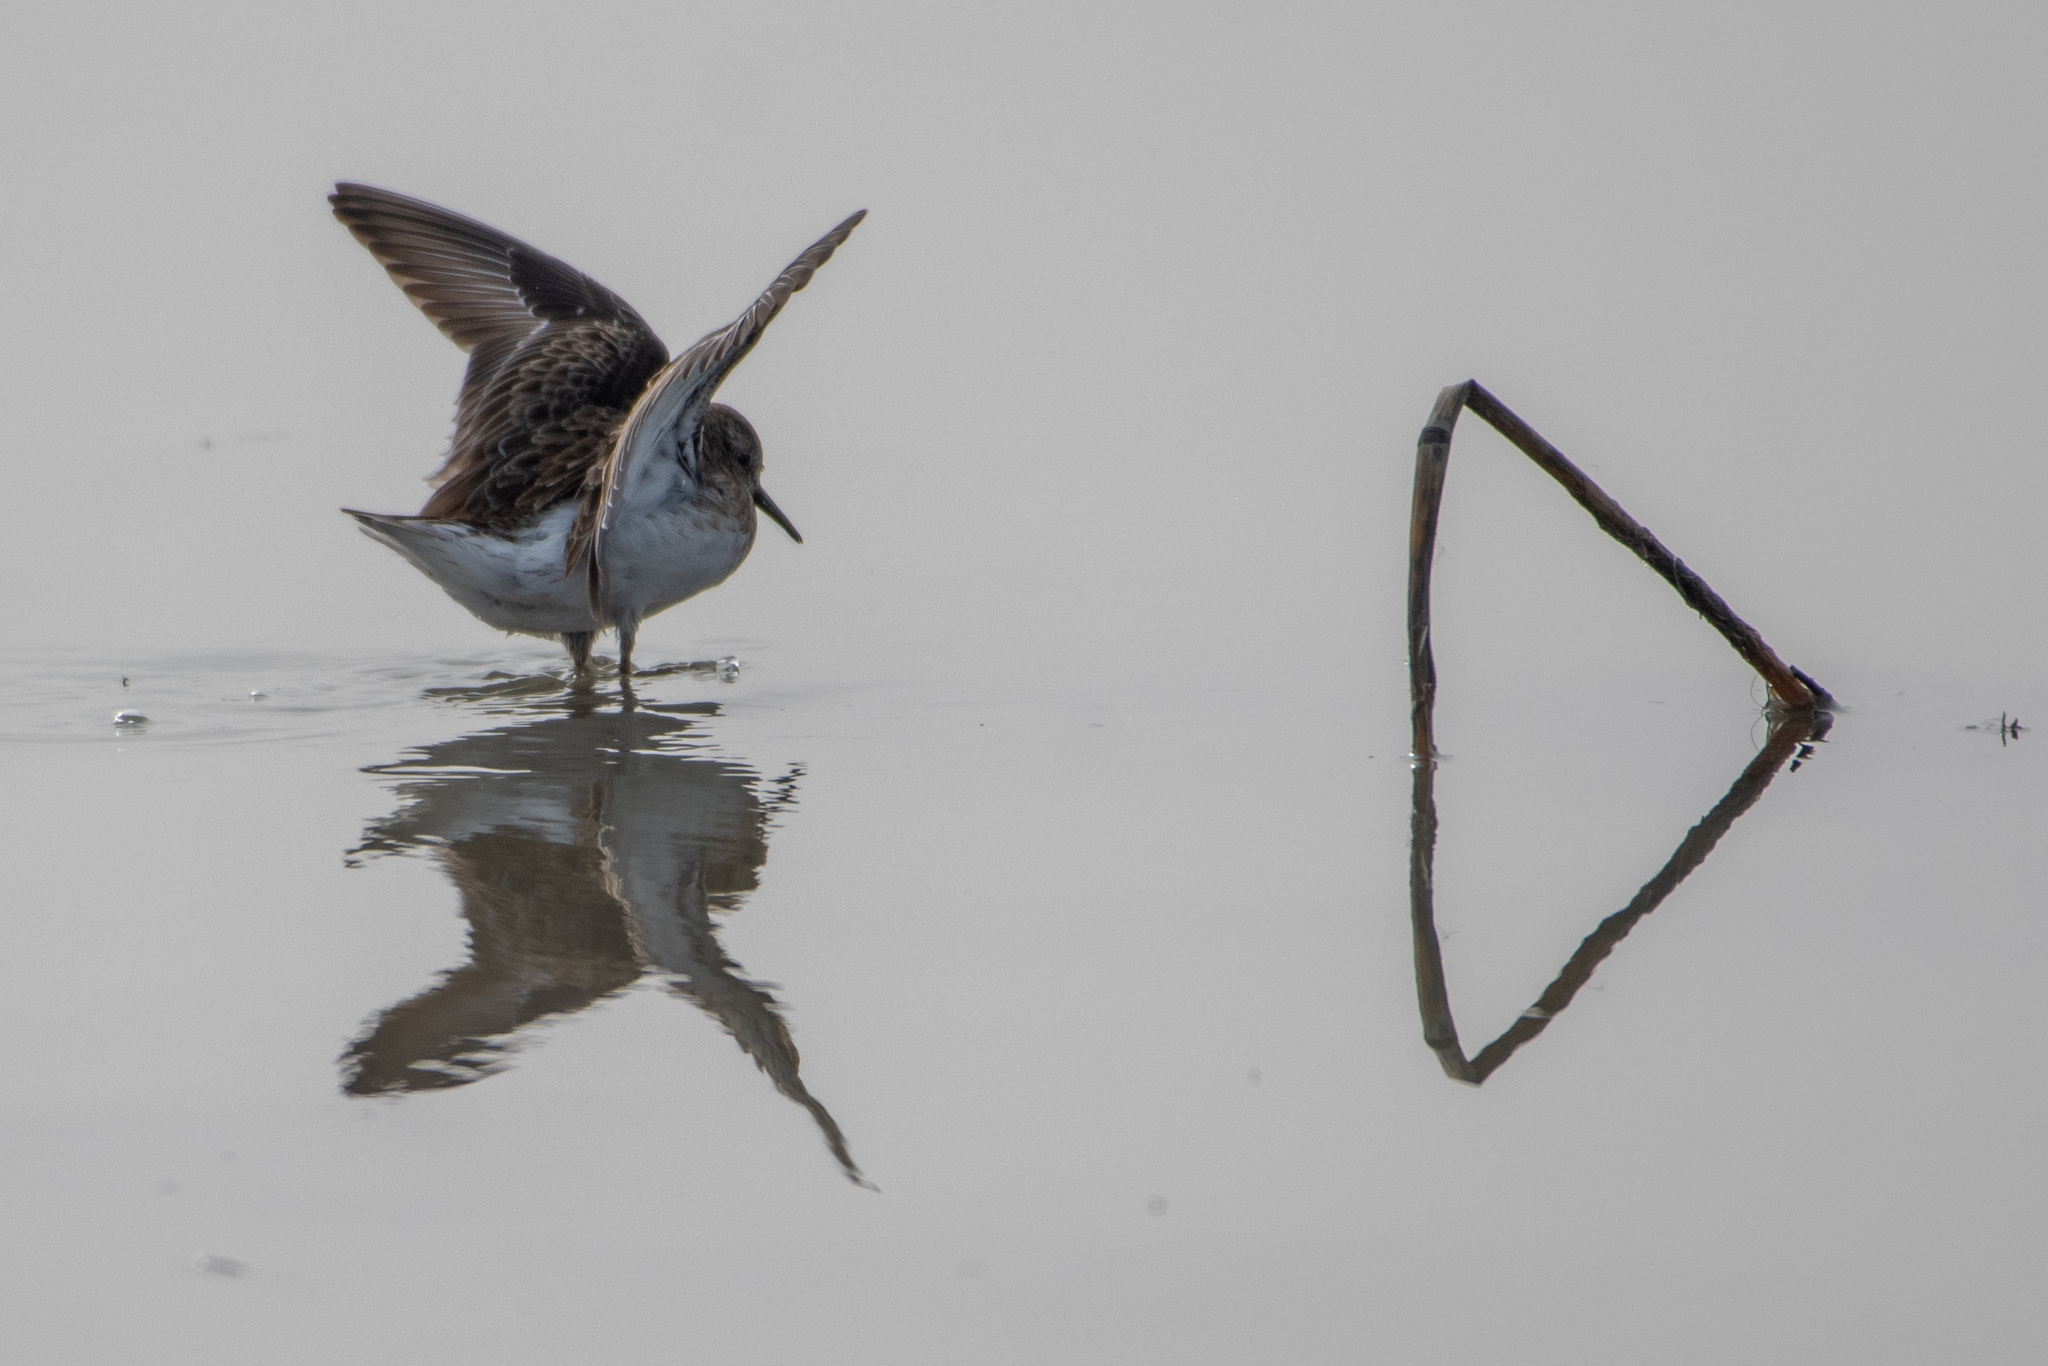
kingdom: Animalia
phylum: Chordata
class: Aves
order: Charadriiformes
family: Scolopacidae
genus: Calidris
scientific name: Calidris minutilla
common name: Least sandpiper
